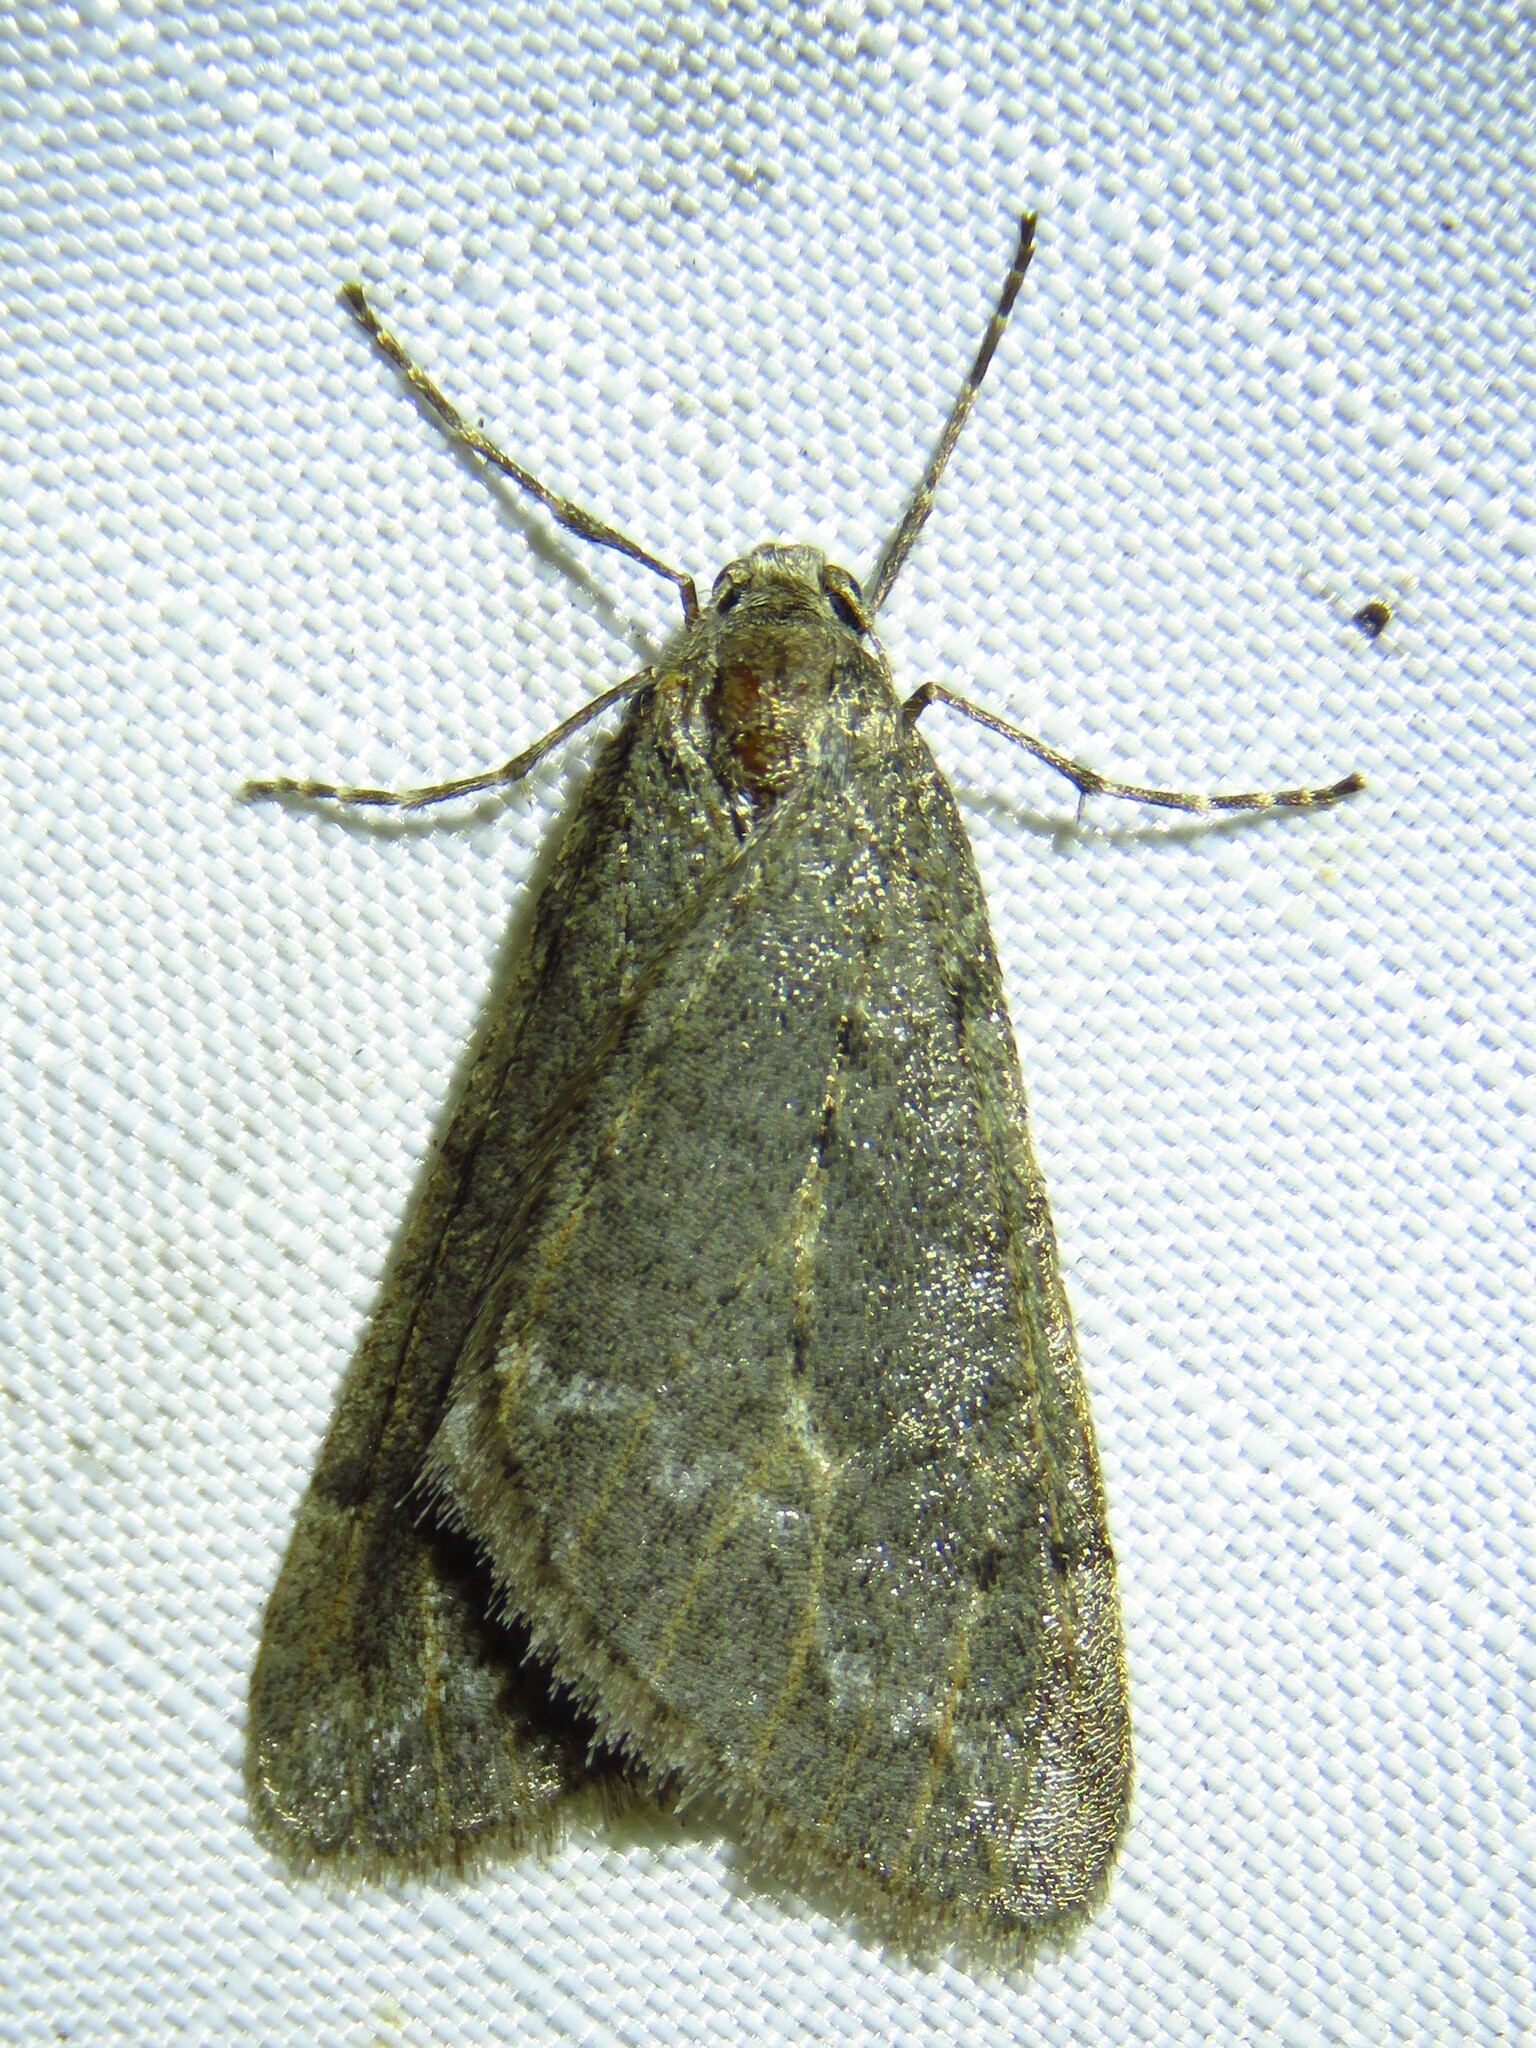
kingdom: Animalia
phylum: Arthropoda
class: Insecta
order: Lepidoptera
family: Geometridae
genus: Paleacrita
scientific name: Paleacrita vernata
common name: Spring cankerworm
